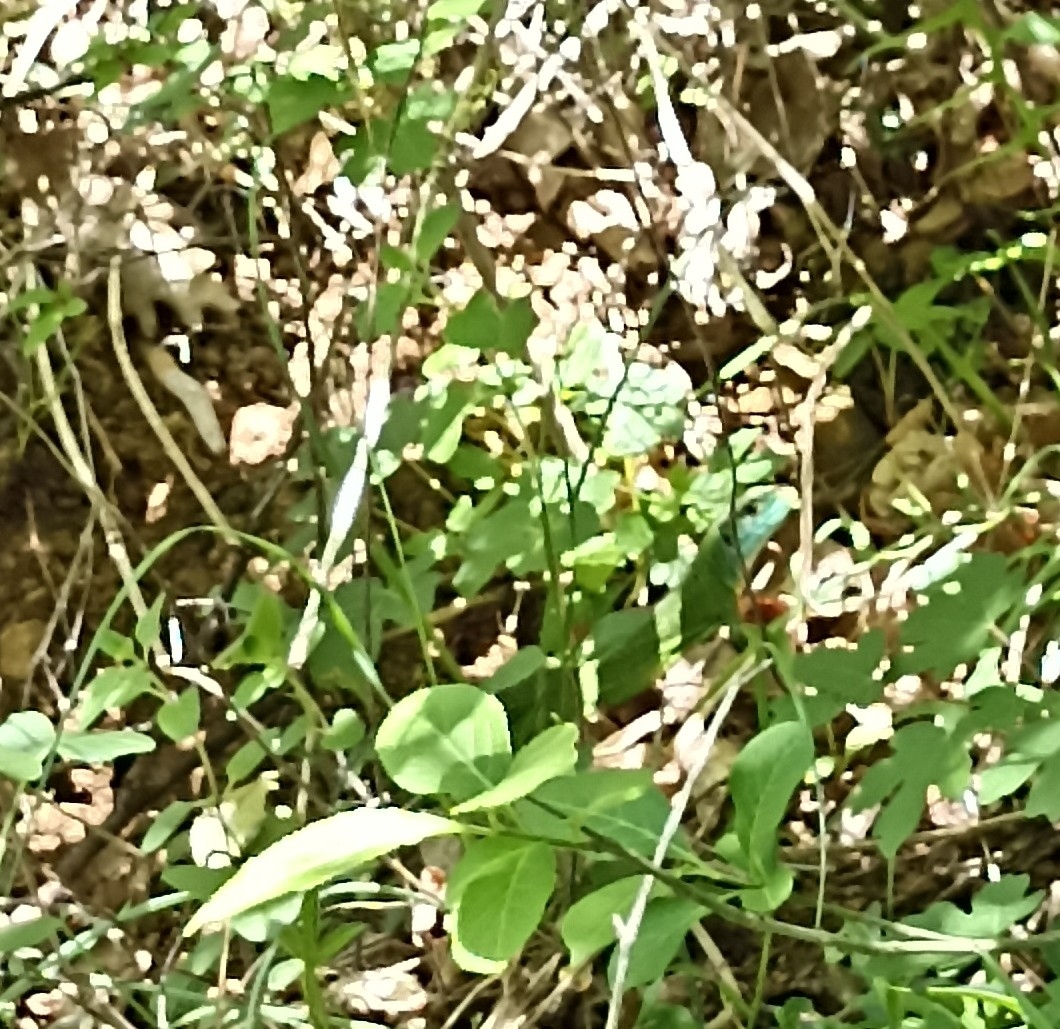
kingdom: Animalia
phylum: Chordata
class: Squamata
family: Lacertidae
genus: Lacerta
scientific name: Lacerta bilineata
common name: Western green lizard
